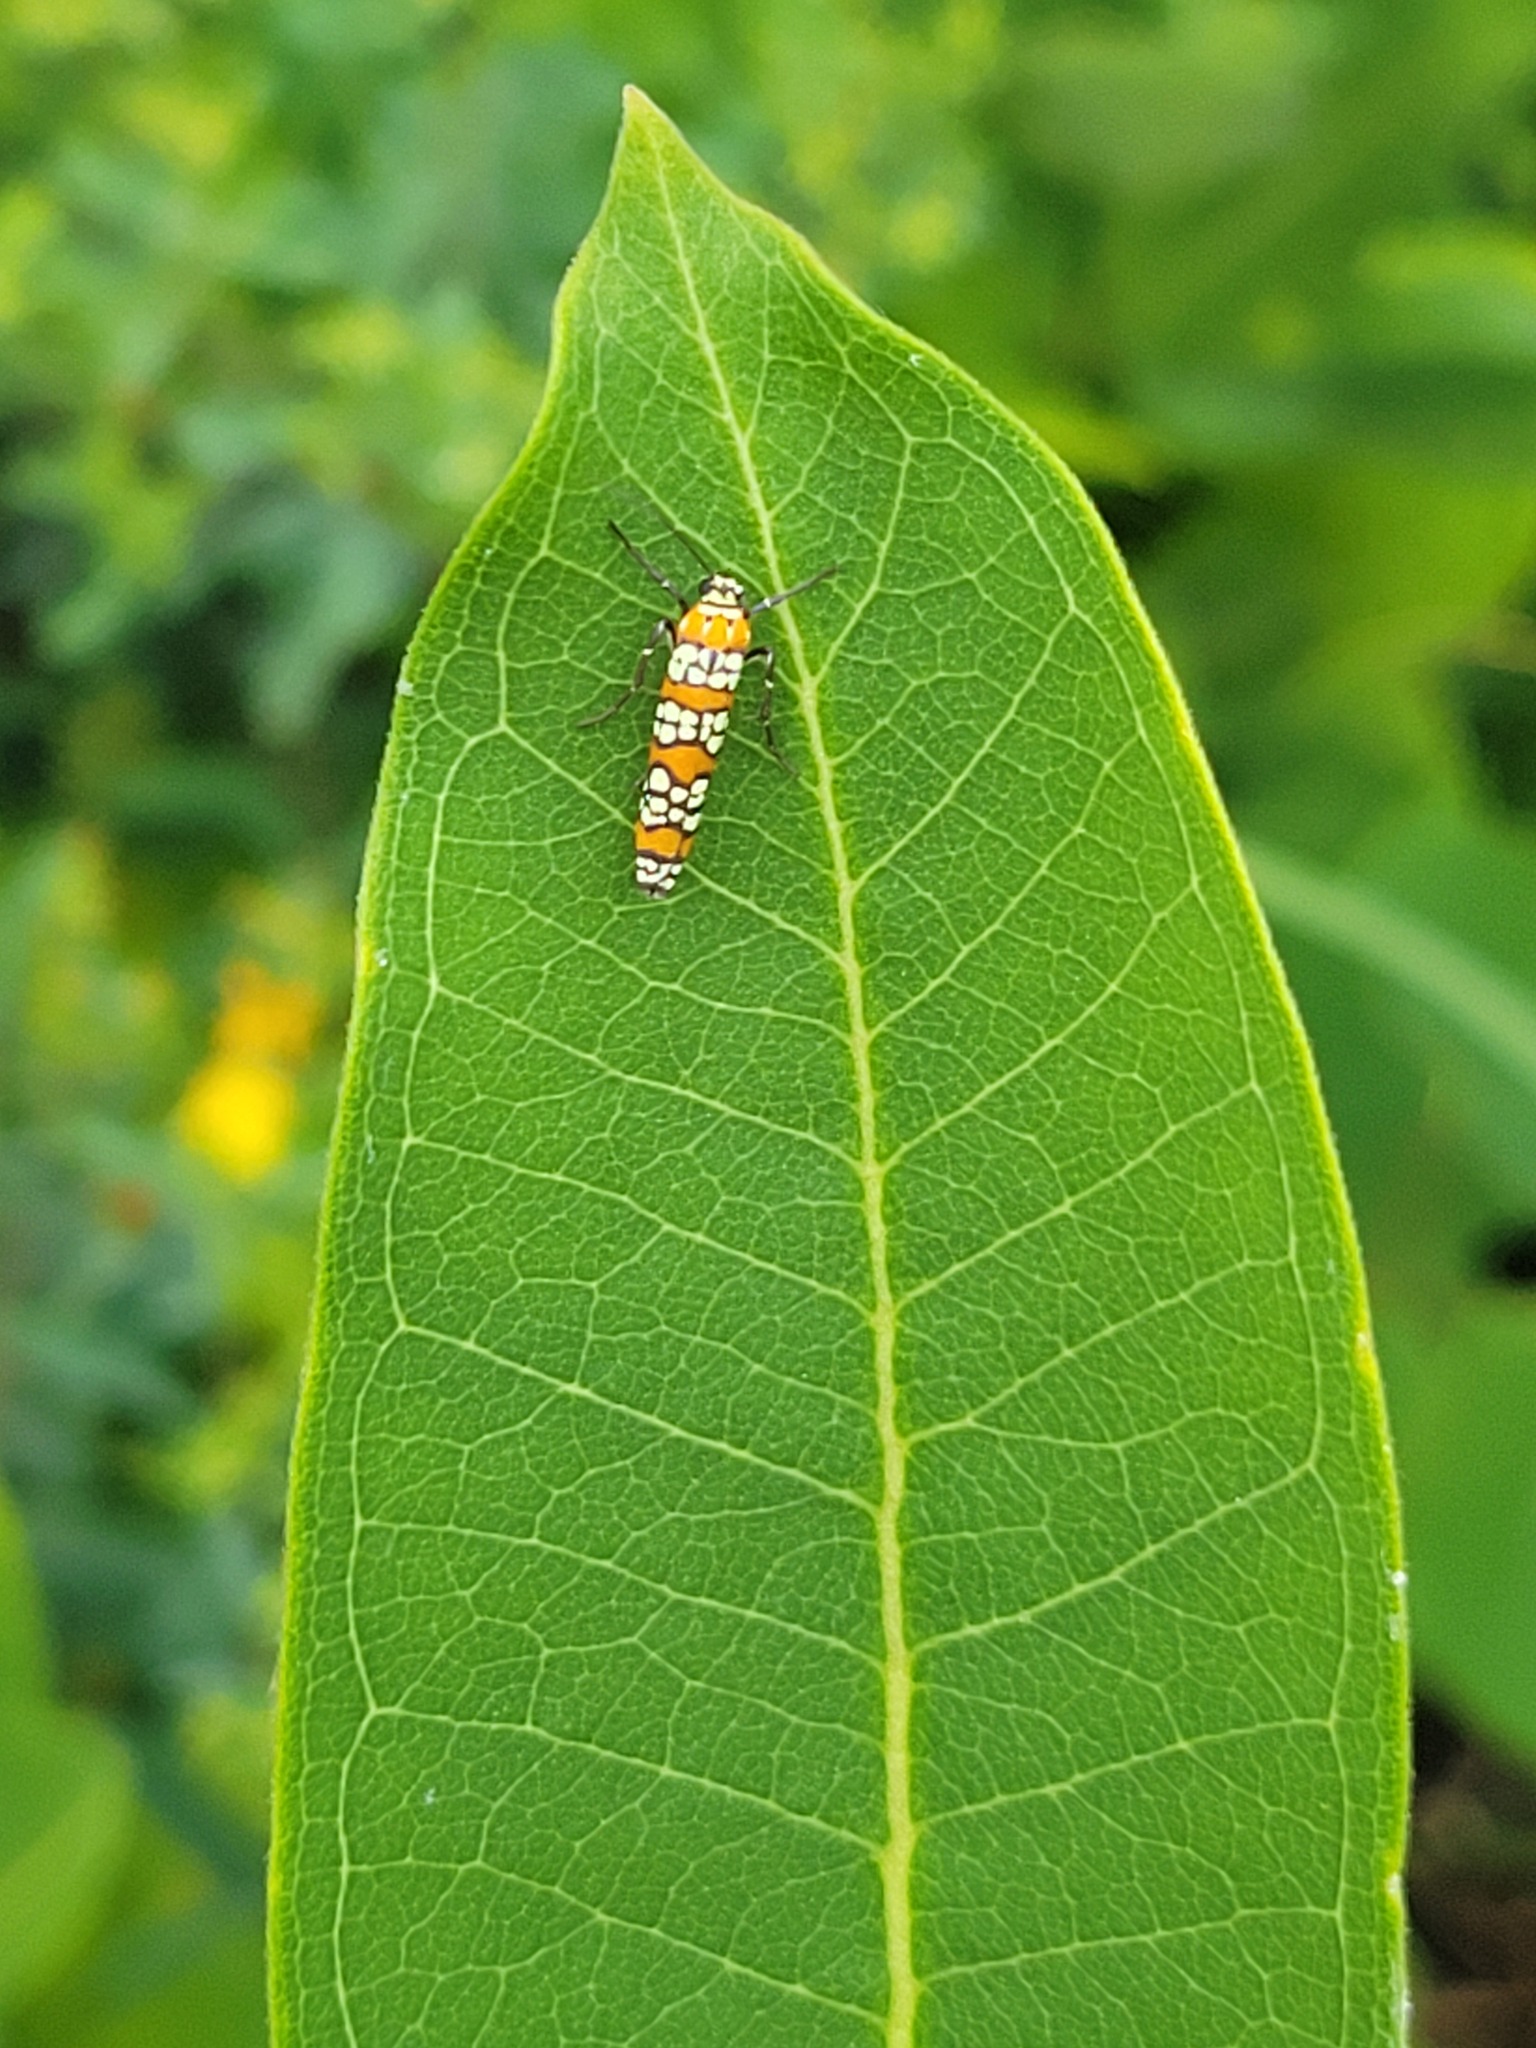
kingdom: Animalia
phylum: Arthropoda
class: Insecta
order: Lepidoptera
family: Attevidae
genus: Atteva
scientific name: Atteva punctella
